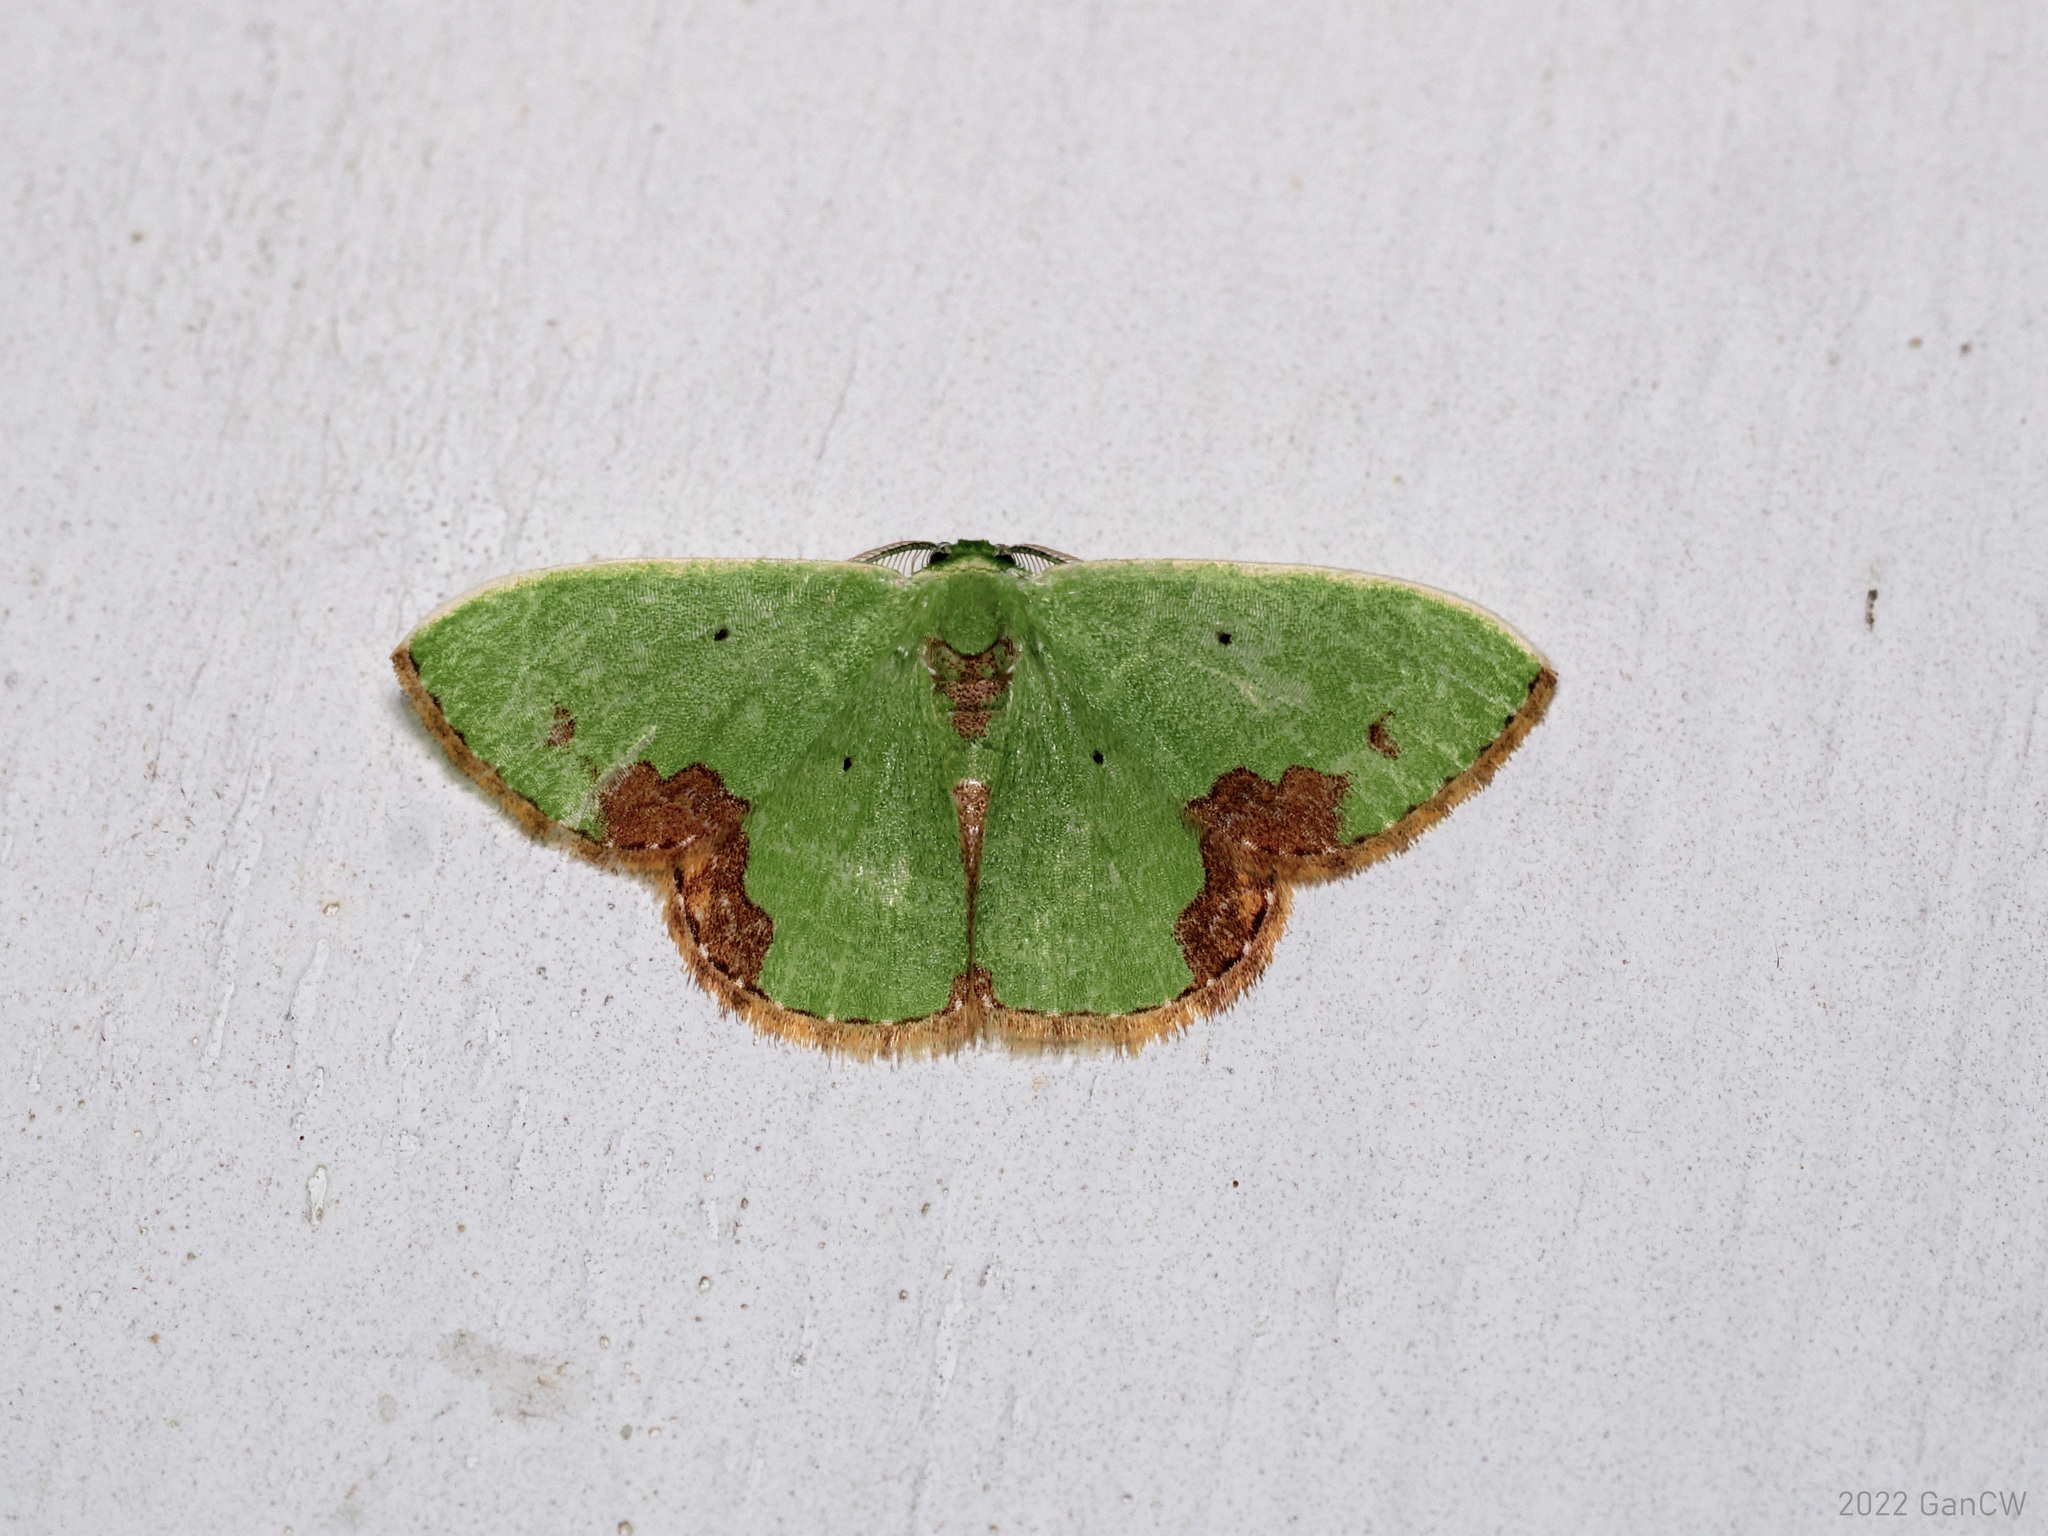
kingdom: Animalia
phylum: Arthropoda
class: Insecta
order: Lepidoptera
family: Geometridae
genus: Comibaena
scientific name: Comibaena attenuata
